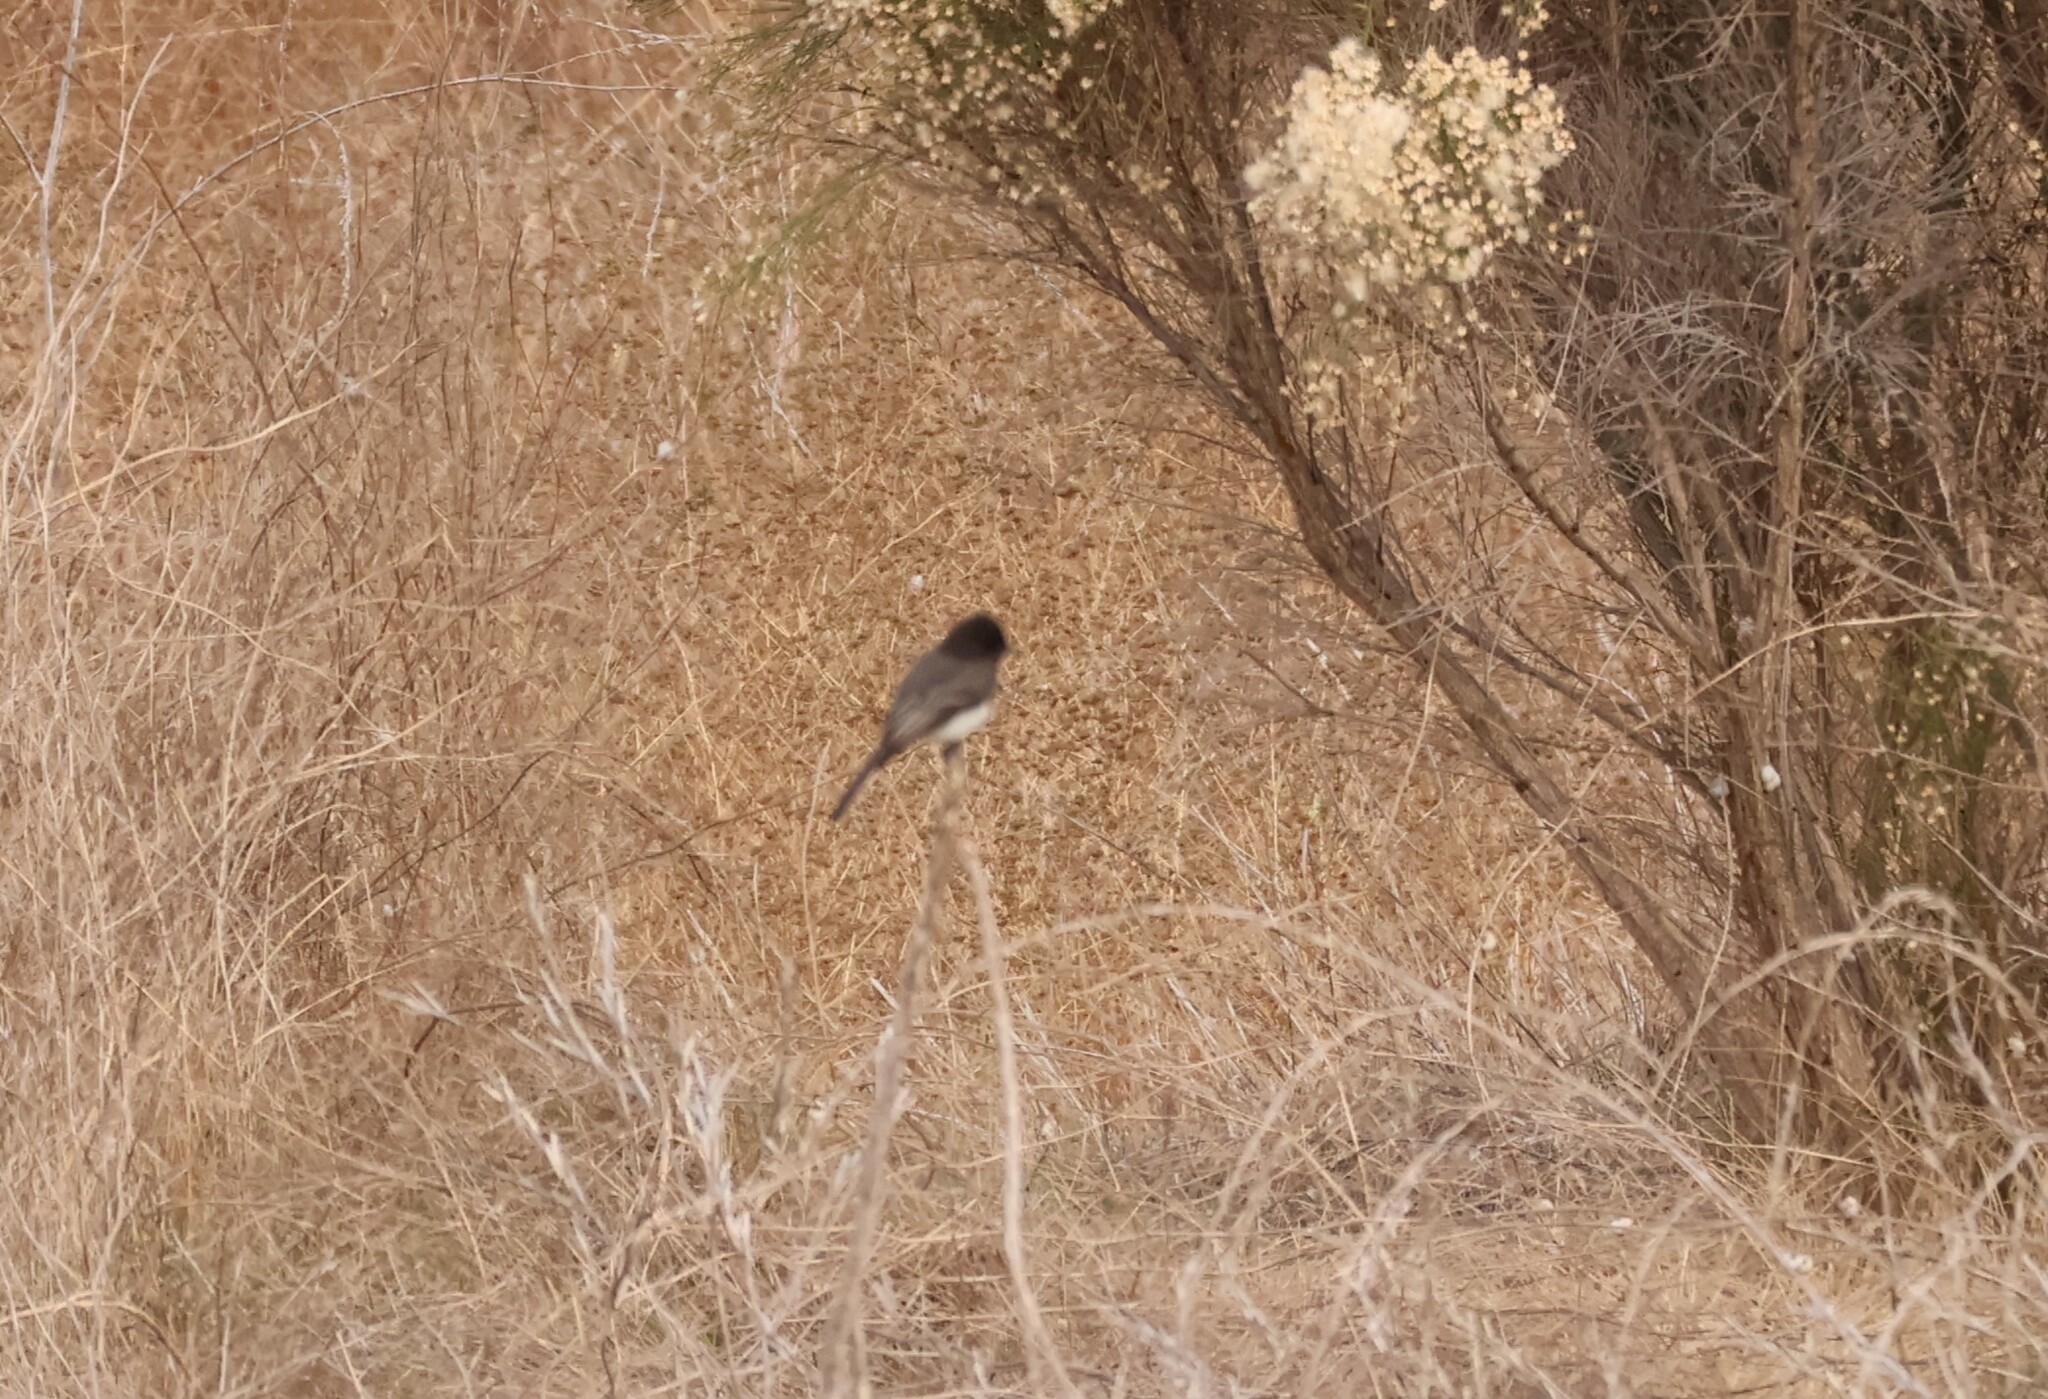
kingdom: Animalia
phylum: Chordata
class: Aves
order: Passeriformes
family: Tyrannidae
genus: Sayornis
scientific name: Sayornis nigricans
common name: Black phoebe
